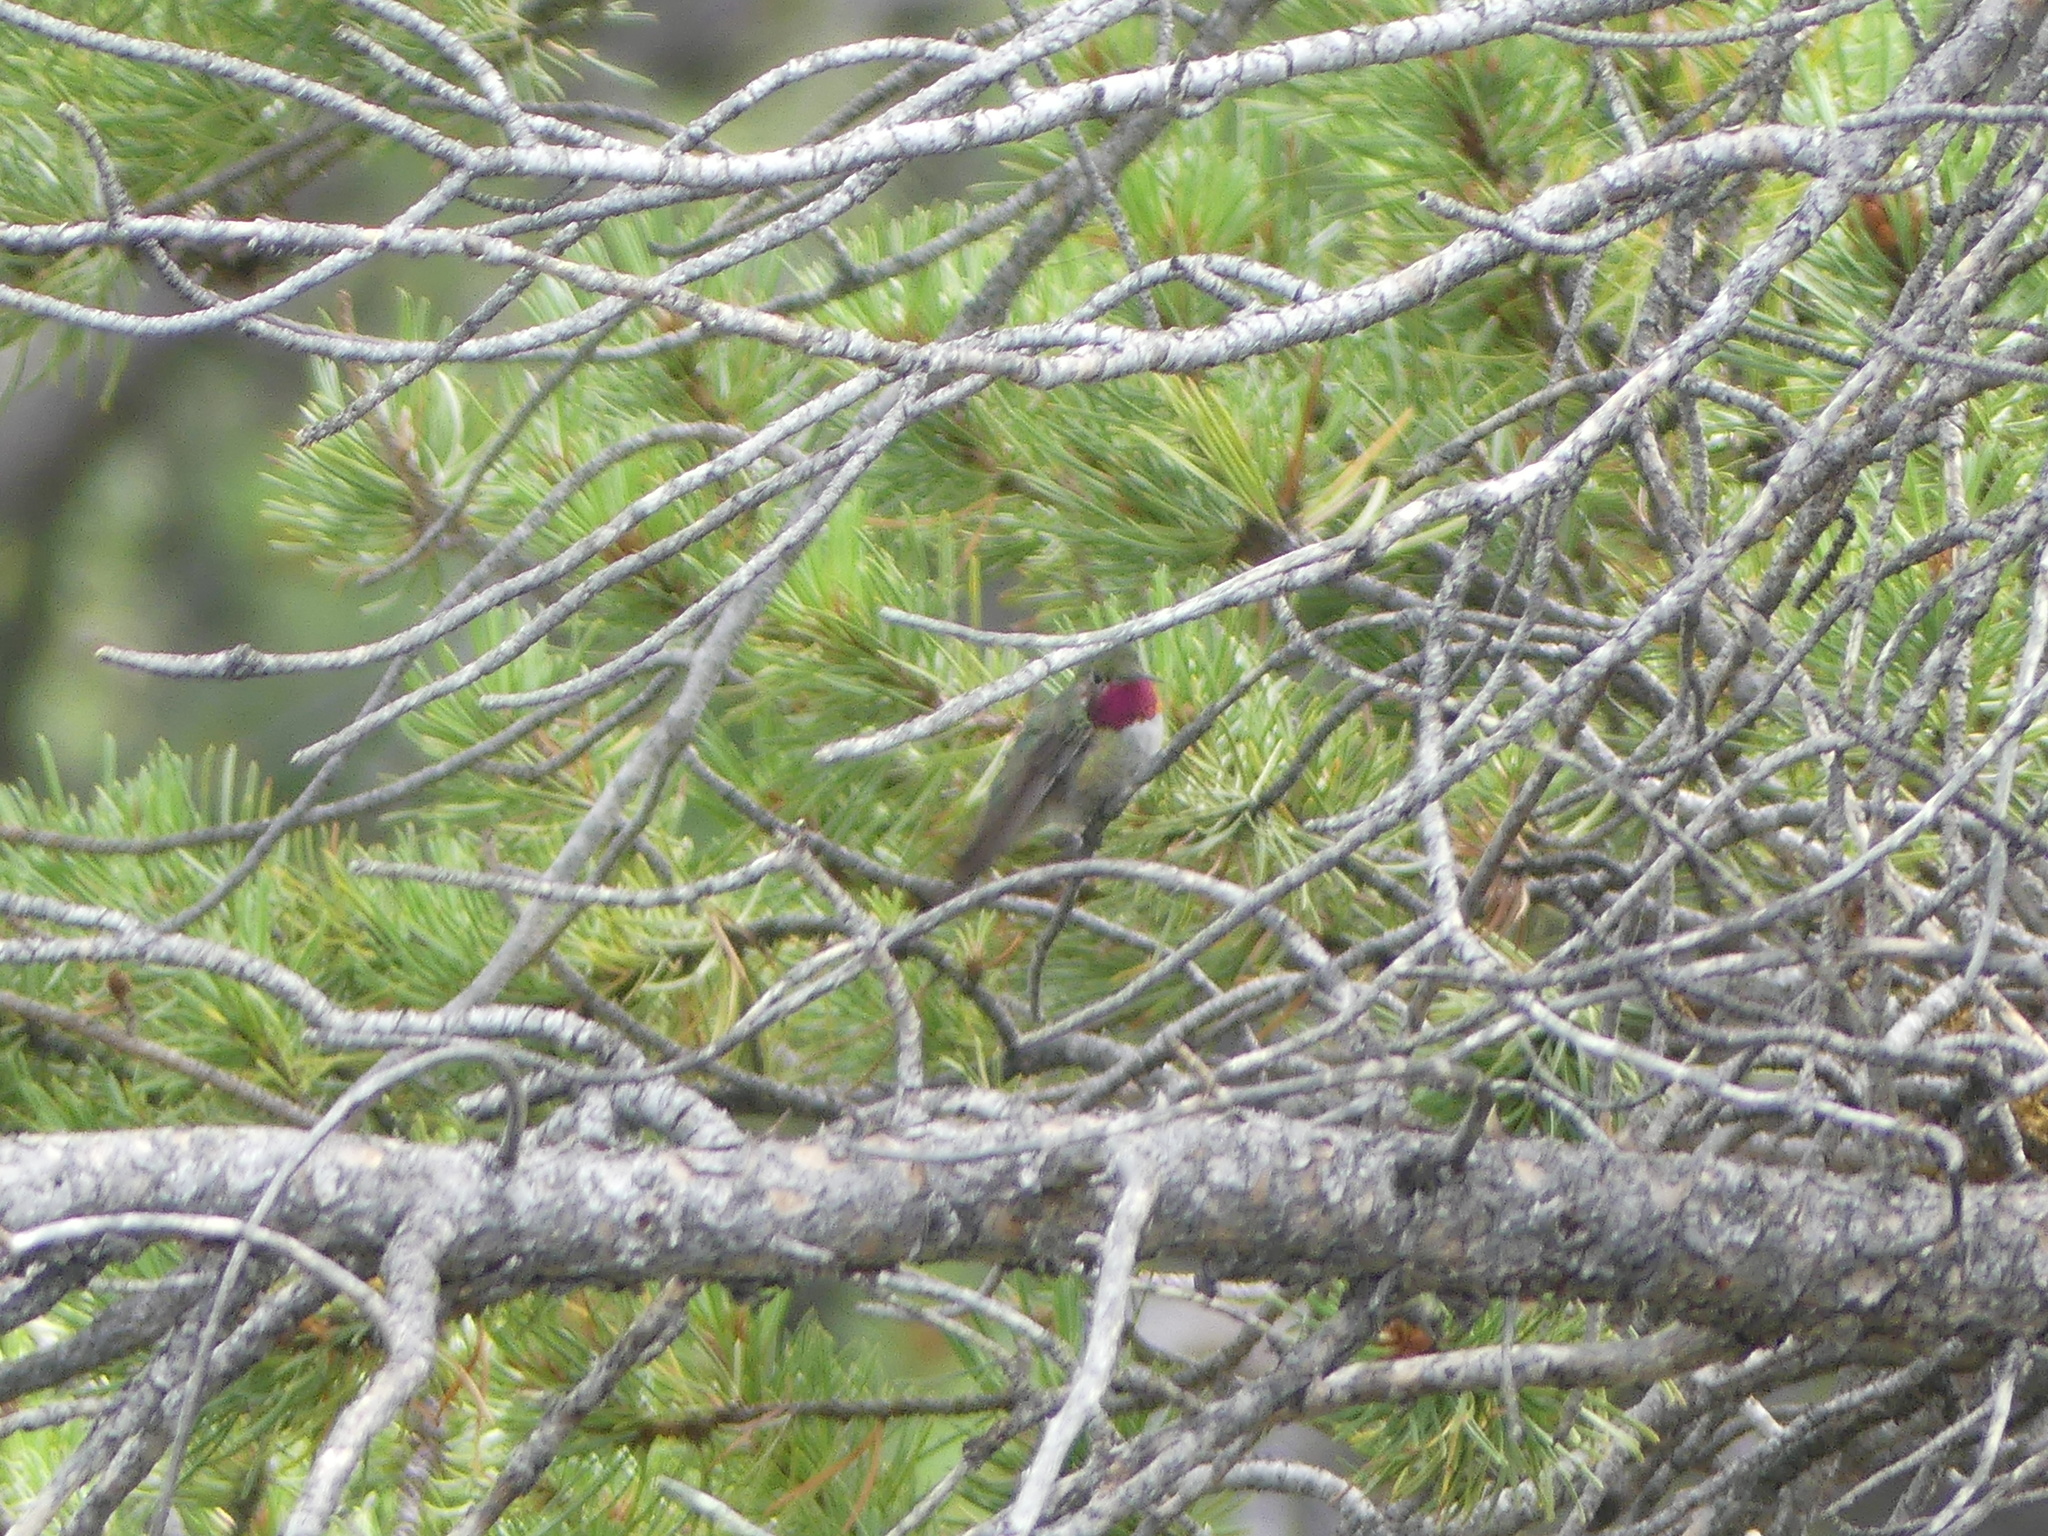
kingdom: Animalia
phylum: Chordata
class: Aves
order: Apodiformes
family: Trochilidae
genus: Selasphorus
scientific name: Selasphorus platycercus
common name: Broad-tailed hummingbird
